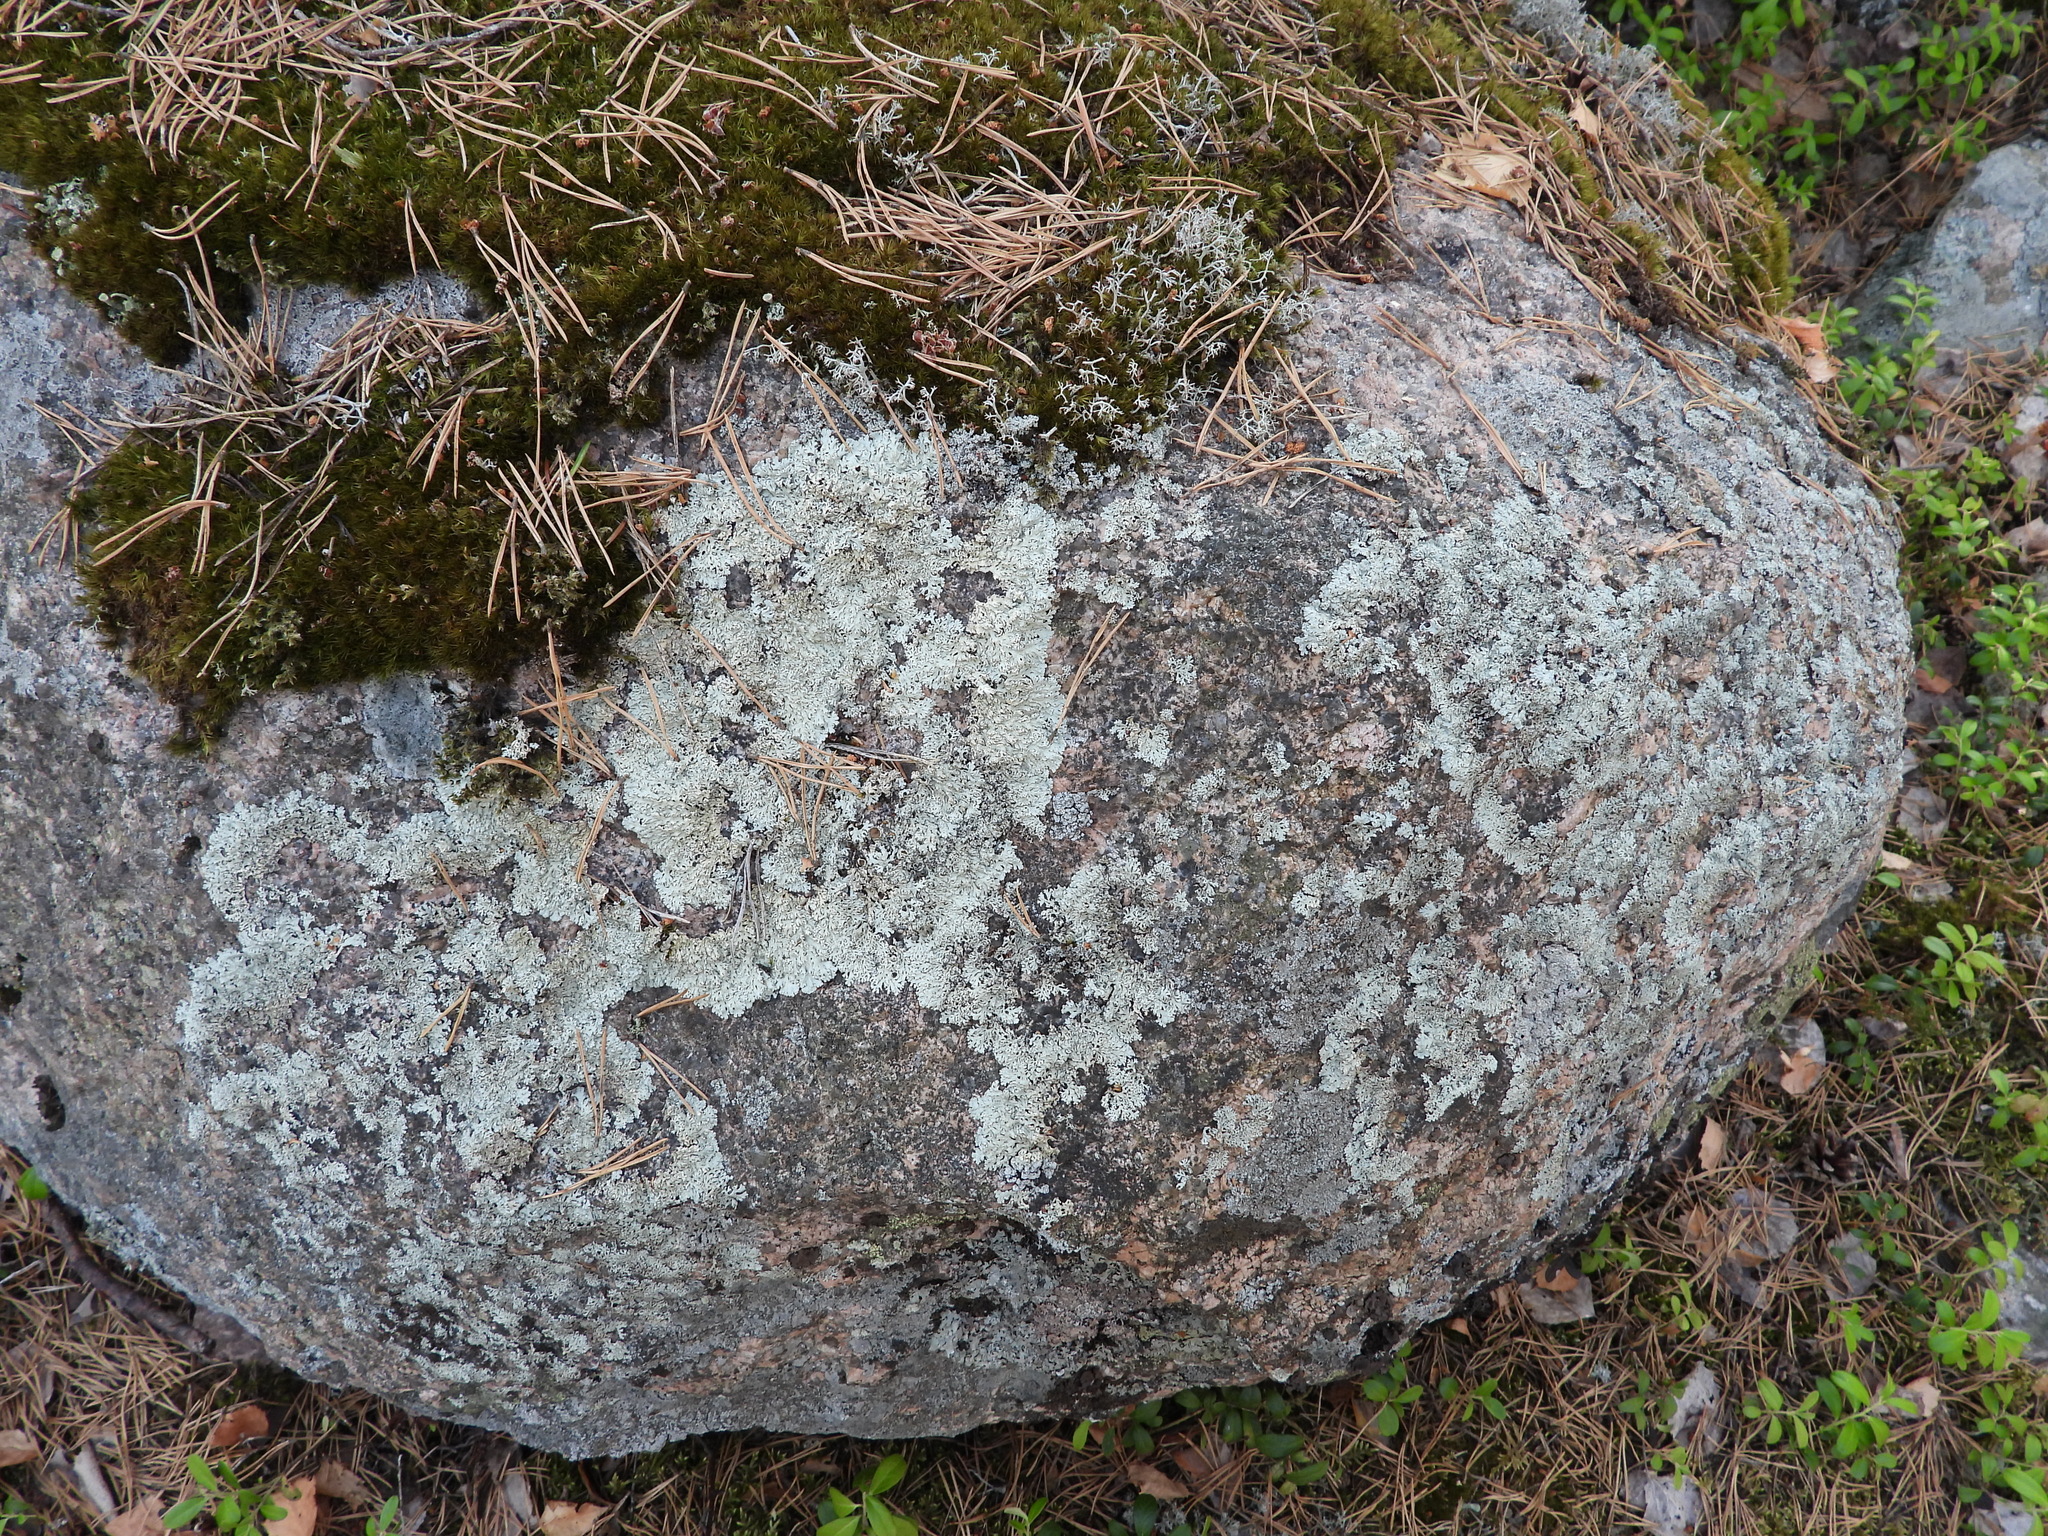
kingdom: Fungi
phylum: Ascomycota
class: Lecanoromycetes
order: Lecanorales
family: Parmeliaceae
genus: Arctoparmelia
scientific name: Arctoparmelia centrifuga
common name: Concentric ring lichen
